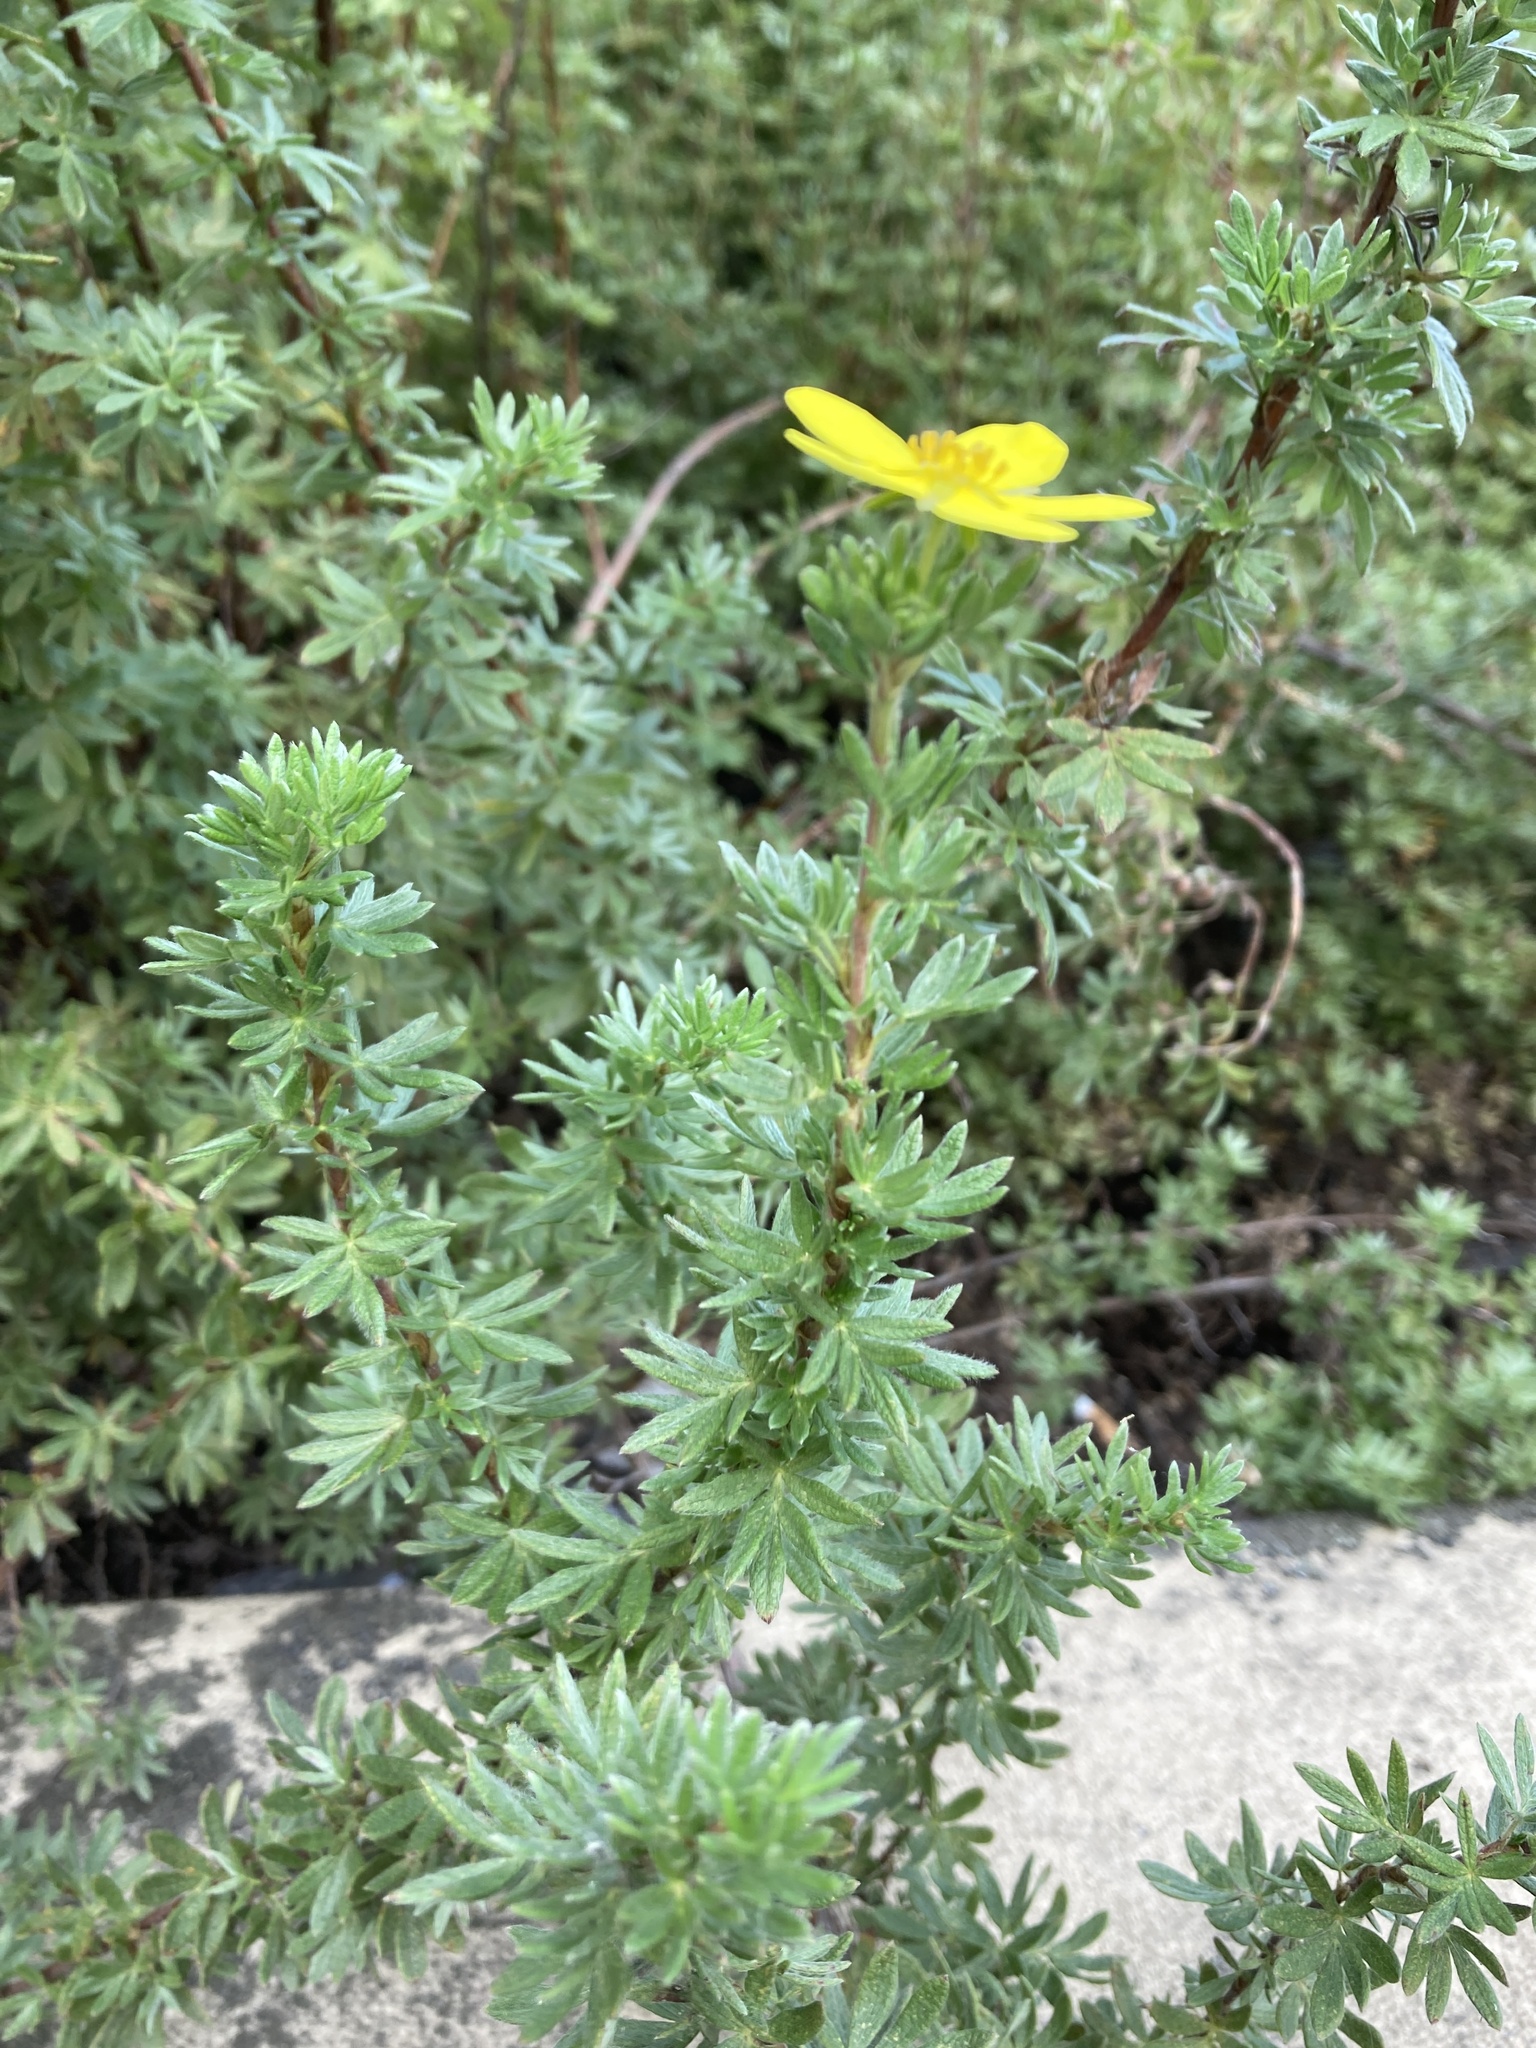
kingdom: Plantae
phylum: Tracheophyta
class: Magnoliopsida
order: Rosales
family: Rosaceae
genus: Dasiphora
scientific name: Dasiphora fruticosa
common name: Shrubby cinquefoil
